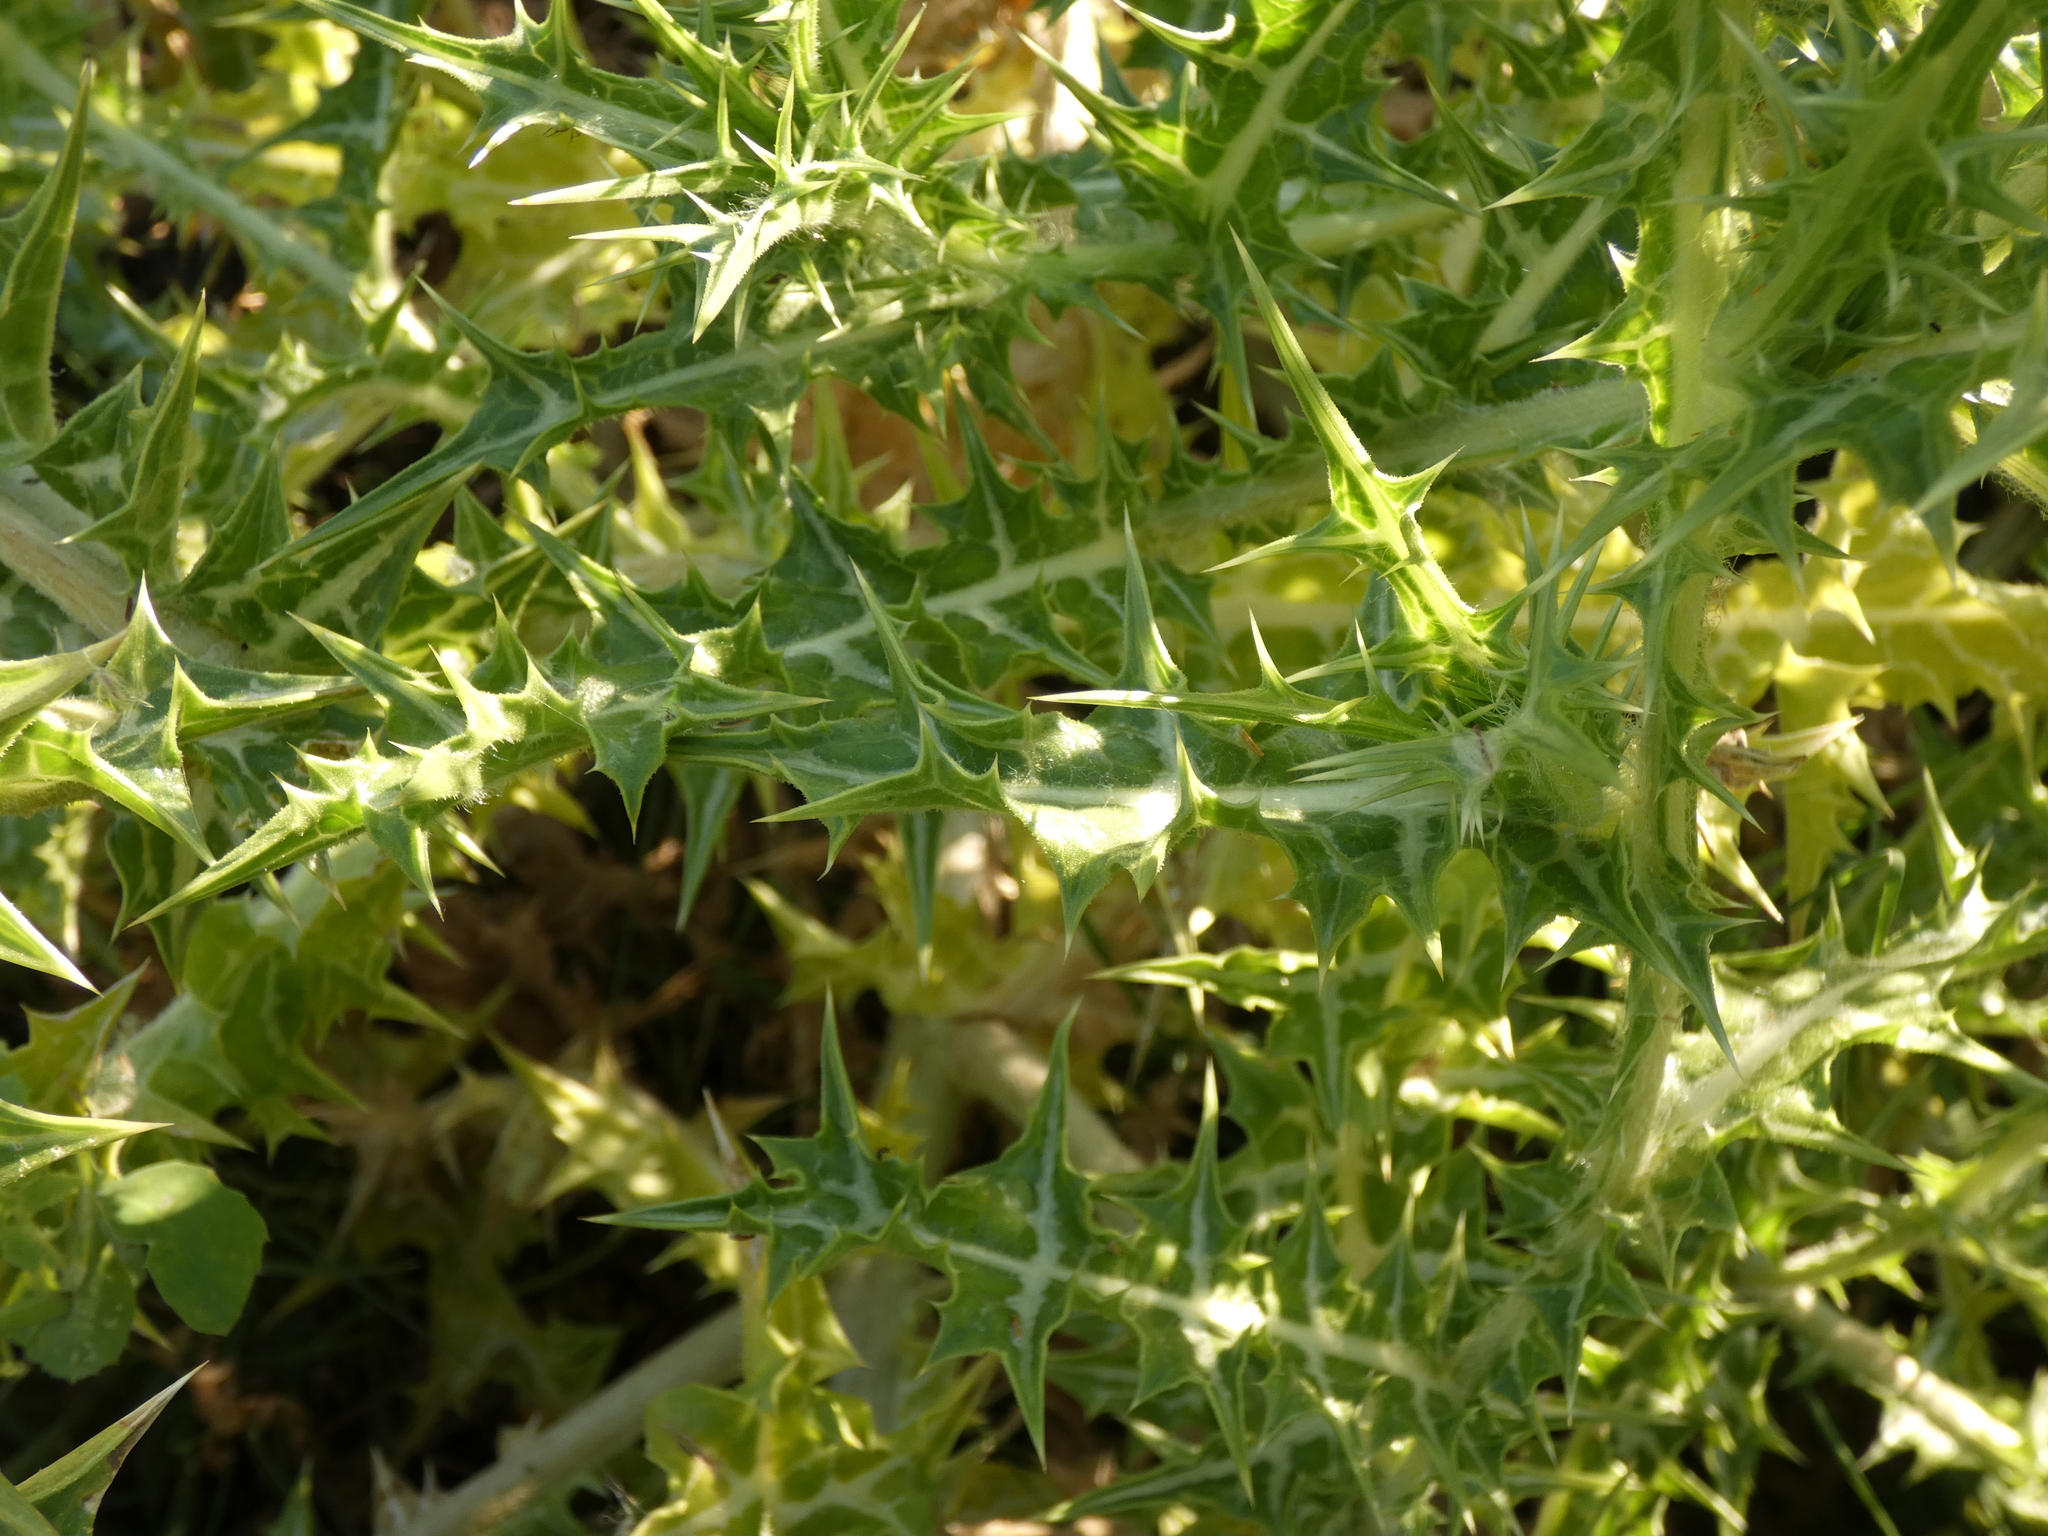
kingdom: Plantae
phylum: Tracheophyta
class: Magnoliopsida
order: Asterales
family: Asteraceae
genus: Scolymus
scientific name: Scolymus hispanicus
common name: Golden thistle
